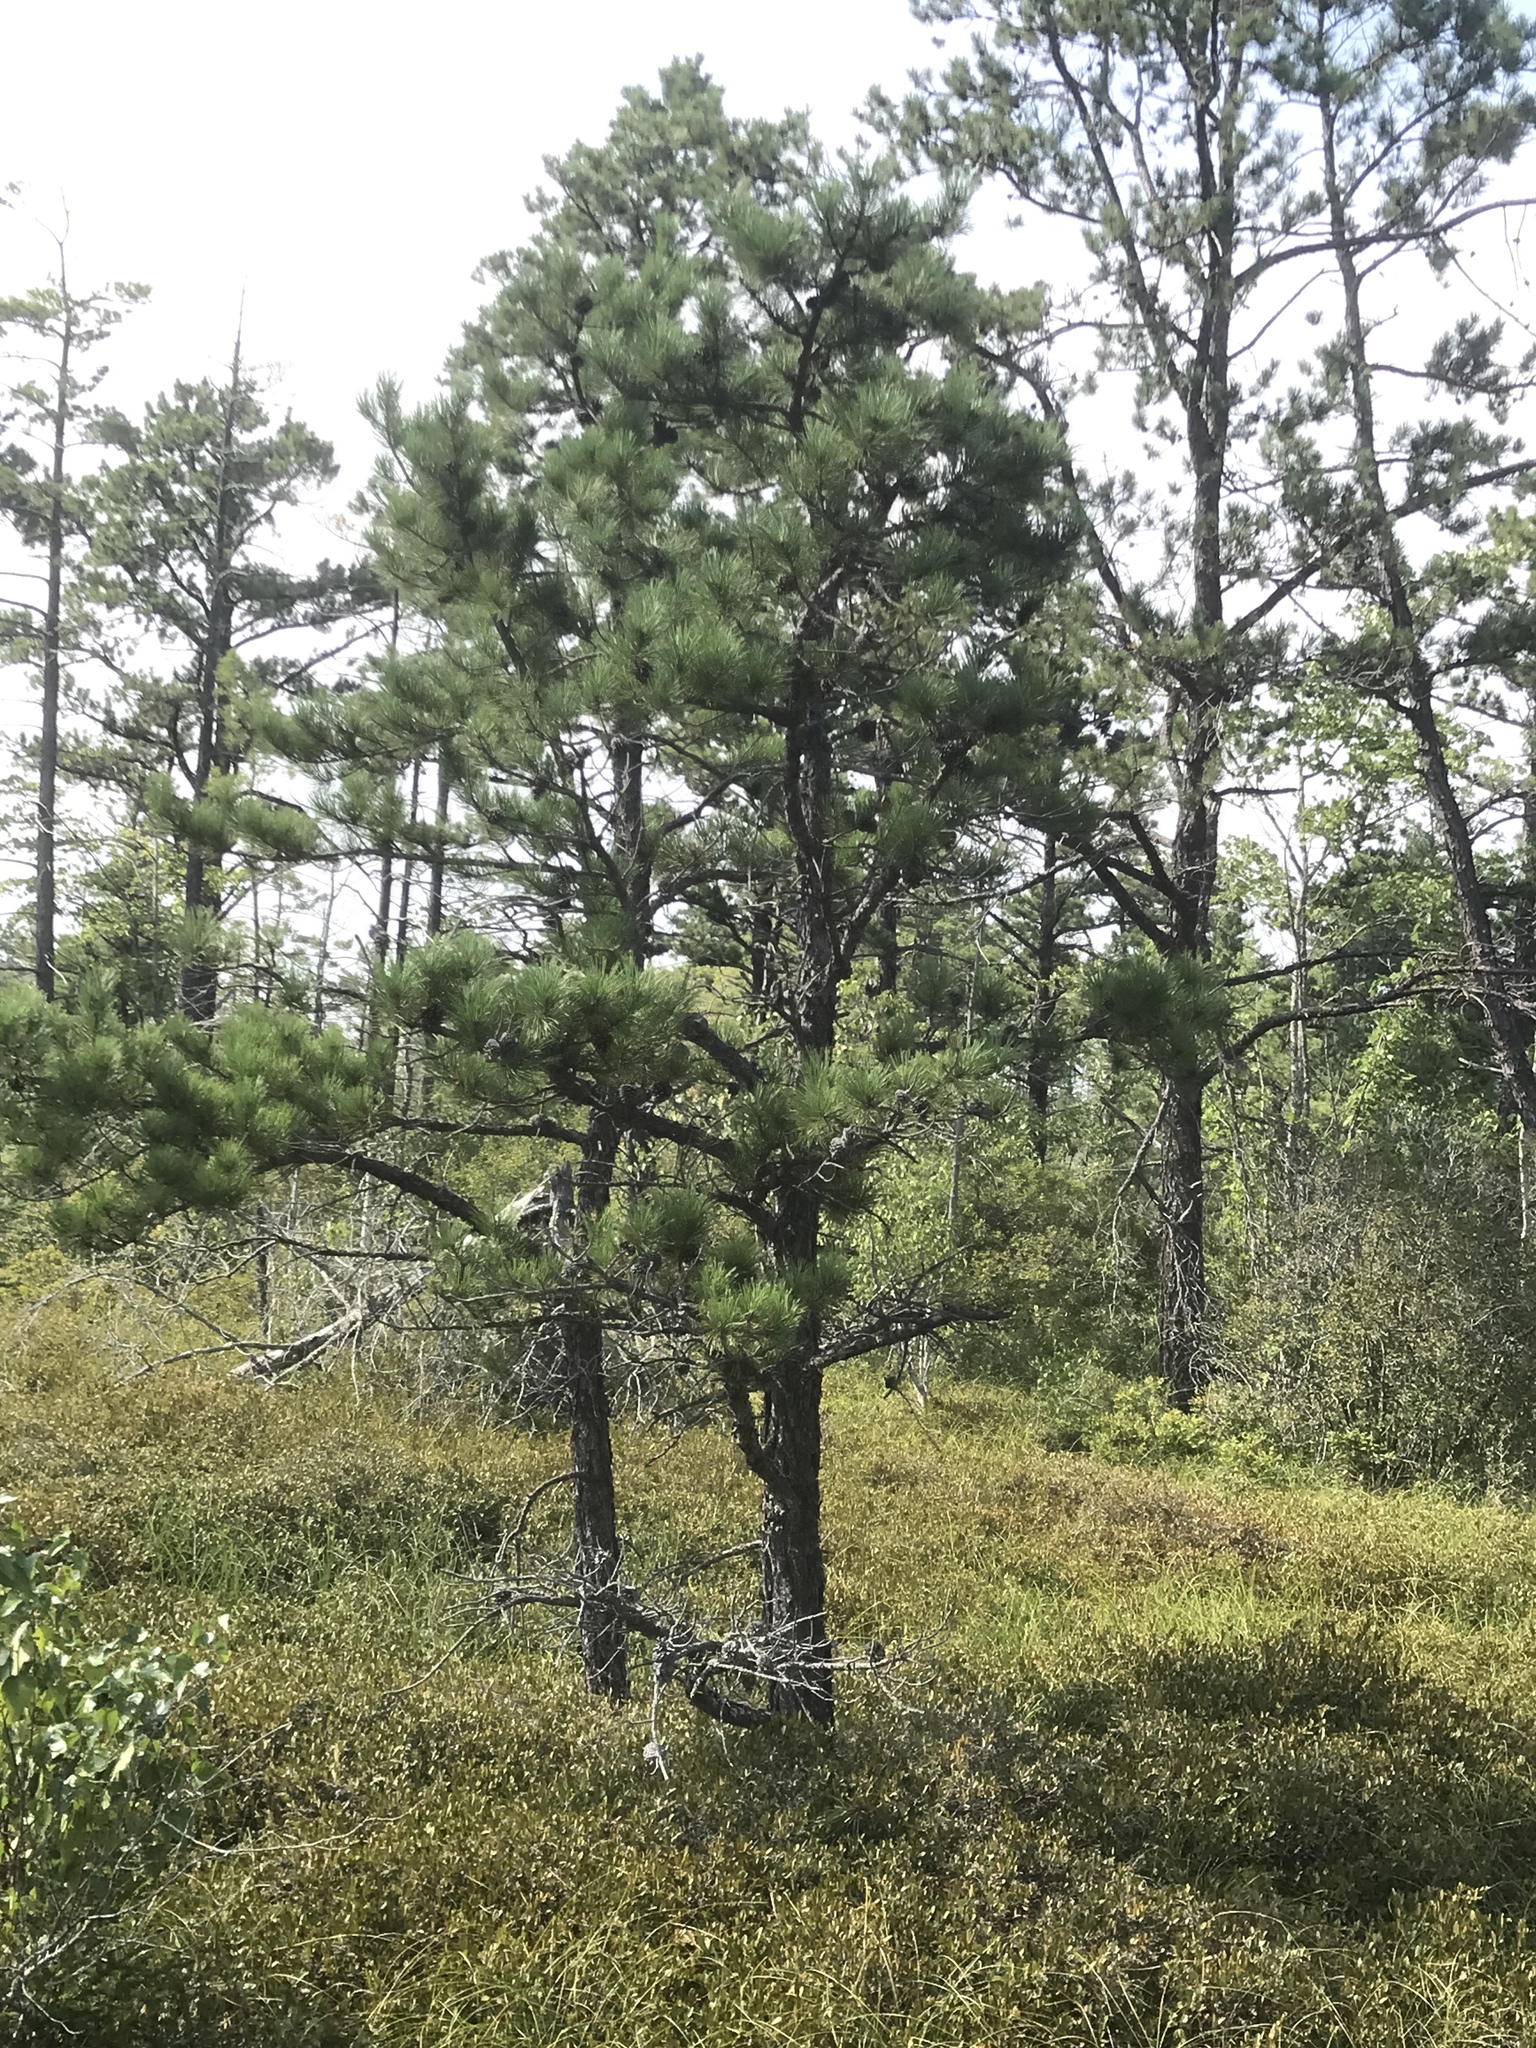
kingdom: Plantae
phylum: Tracheophyta
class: Pinopsida
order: Pinales
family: Pinaceae
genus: Pinus
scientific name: Pinus rigida
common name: Pitch pine
